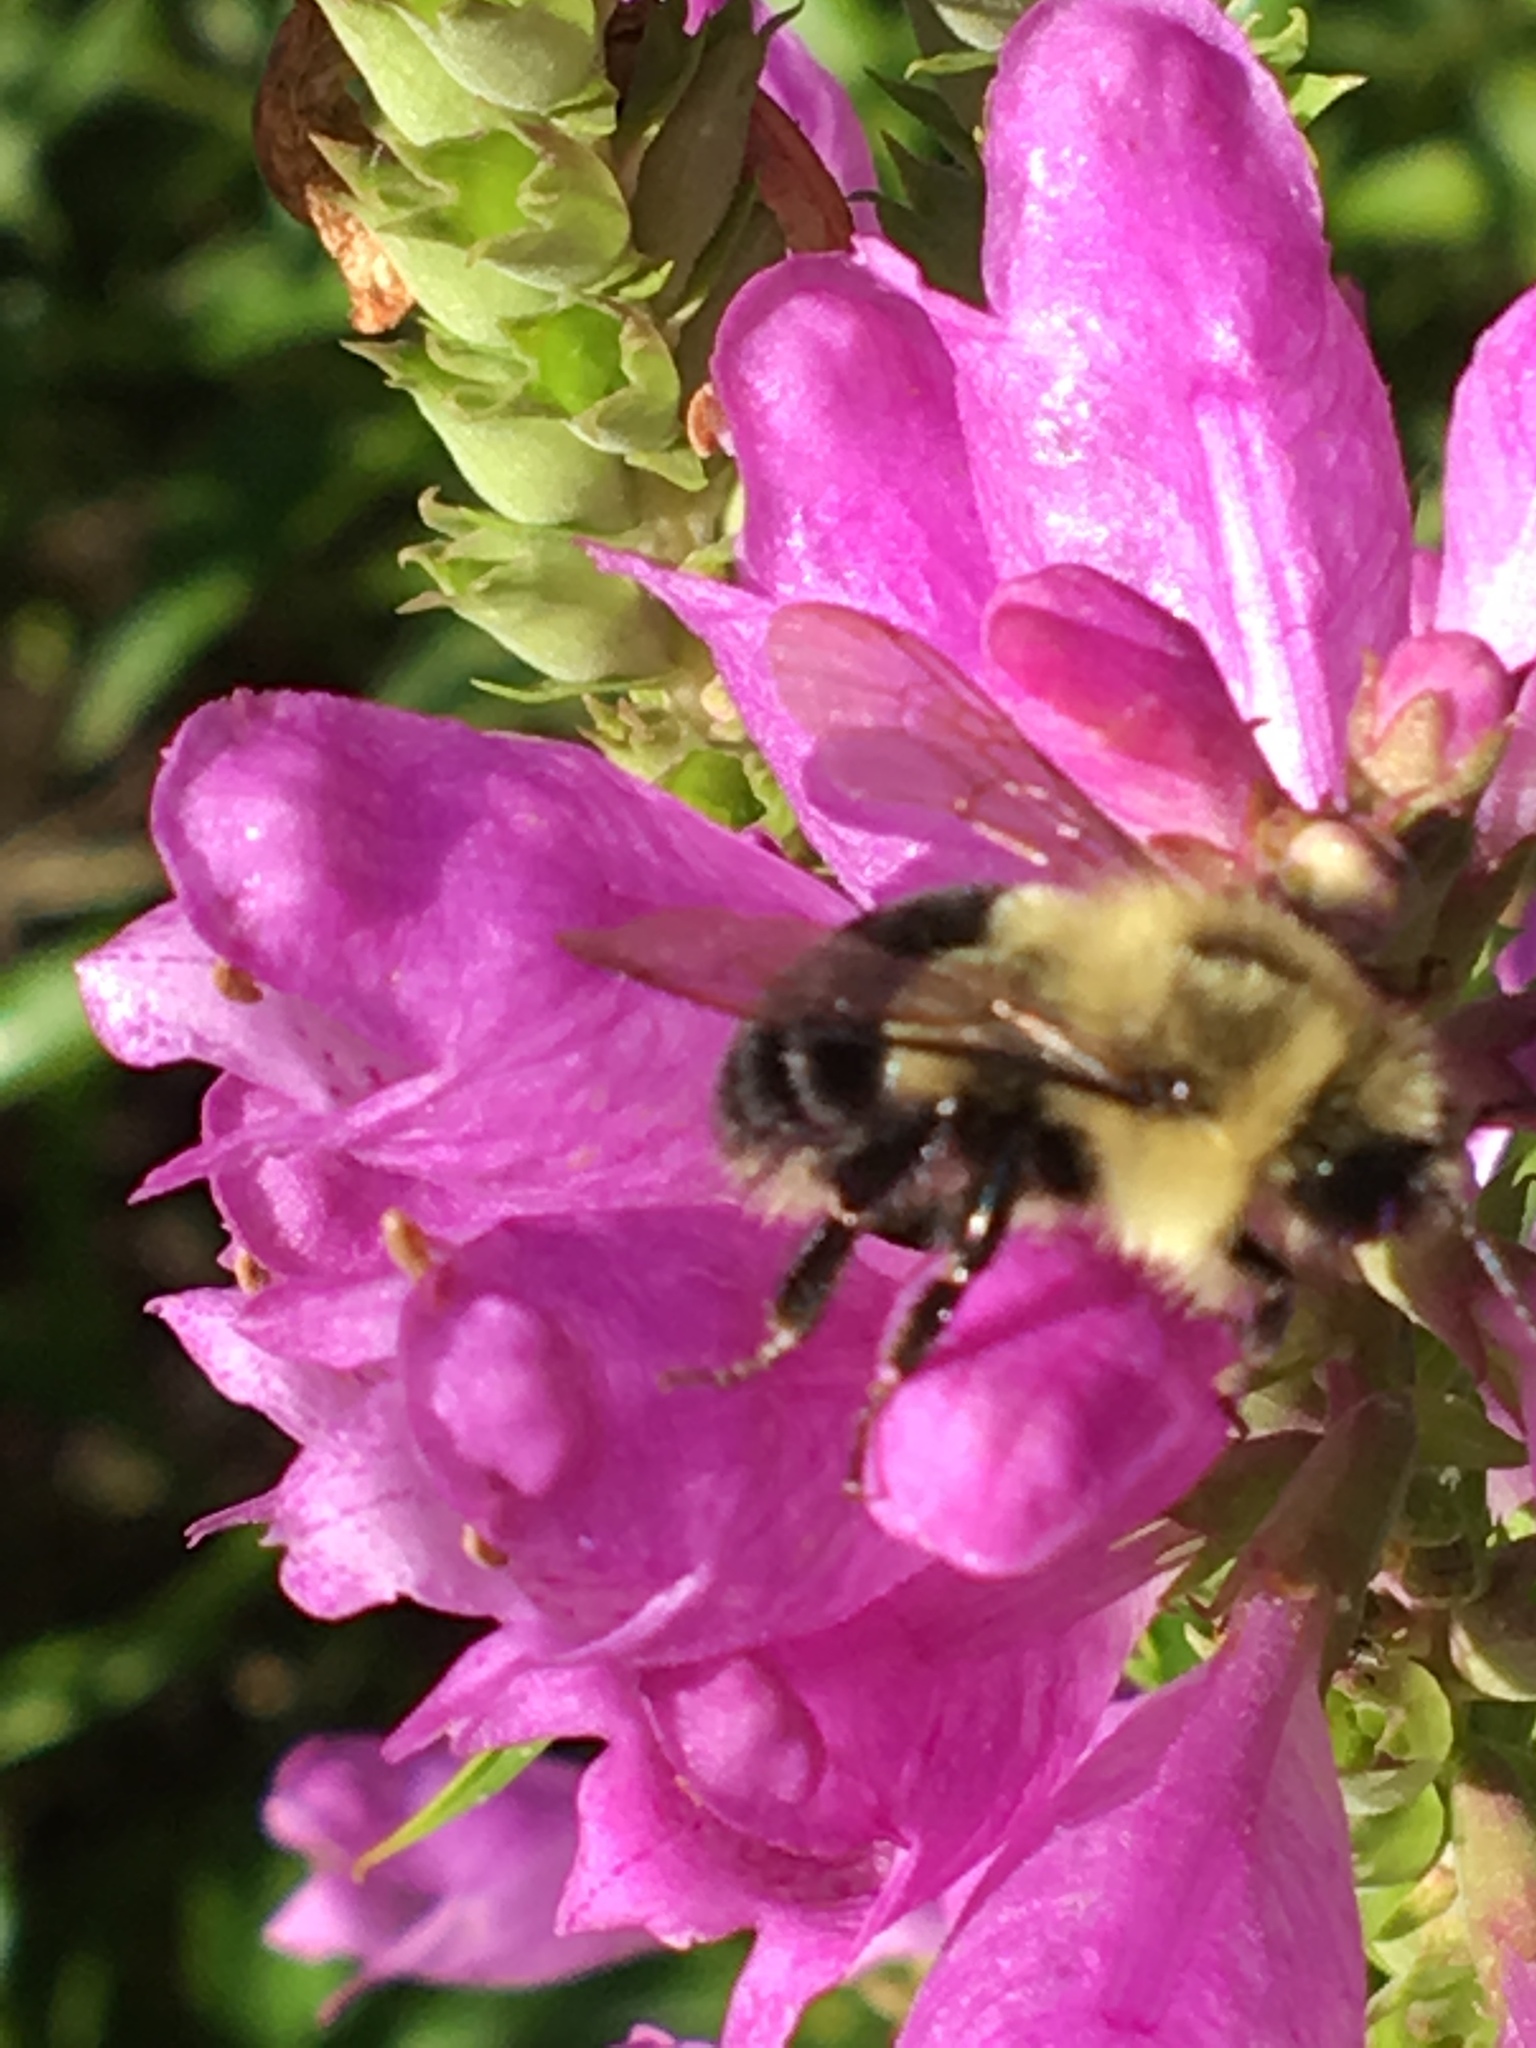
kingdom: Animalia
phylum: Arthropoda
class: Insecta
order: Hymenoptera
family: Apidae
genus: Bombus
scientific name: Bombus impatiens
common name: Common eastern bumble bee
